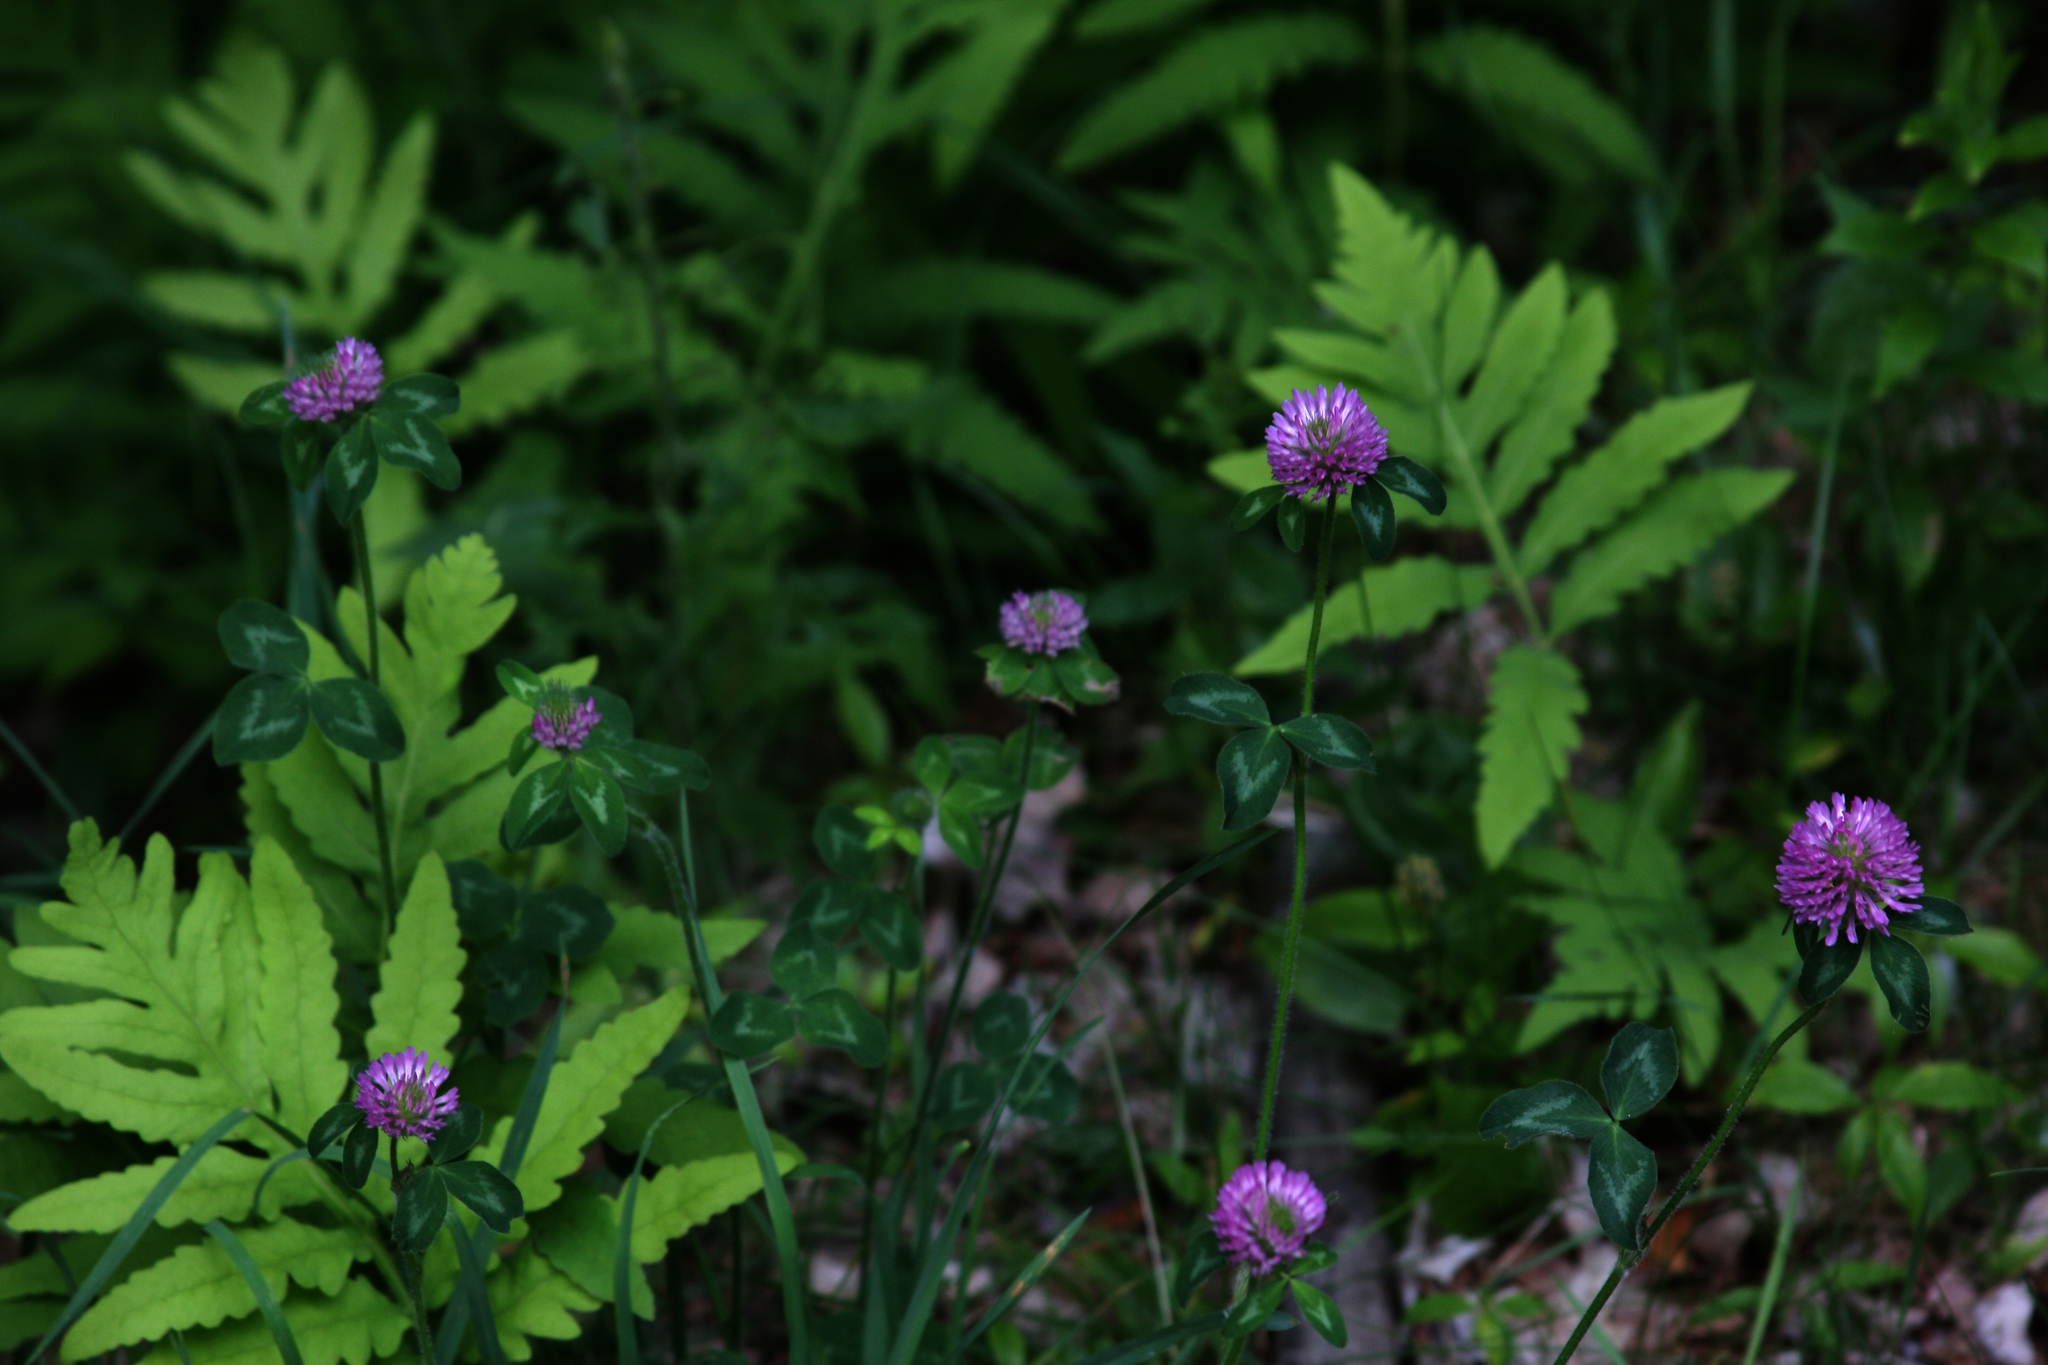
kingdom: Plantae
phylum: Tracheophyta
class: Magnoliopsida
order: Fabales
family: Fabaceae
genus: Trifolium
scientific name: Trifolium pratense
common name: Red clover
